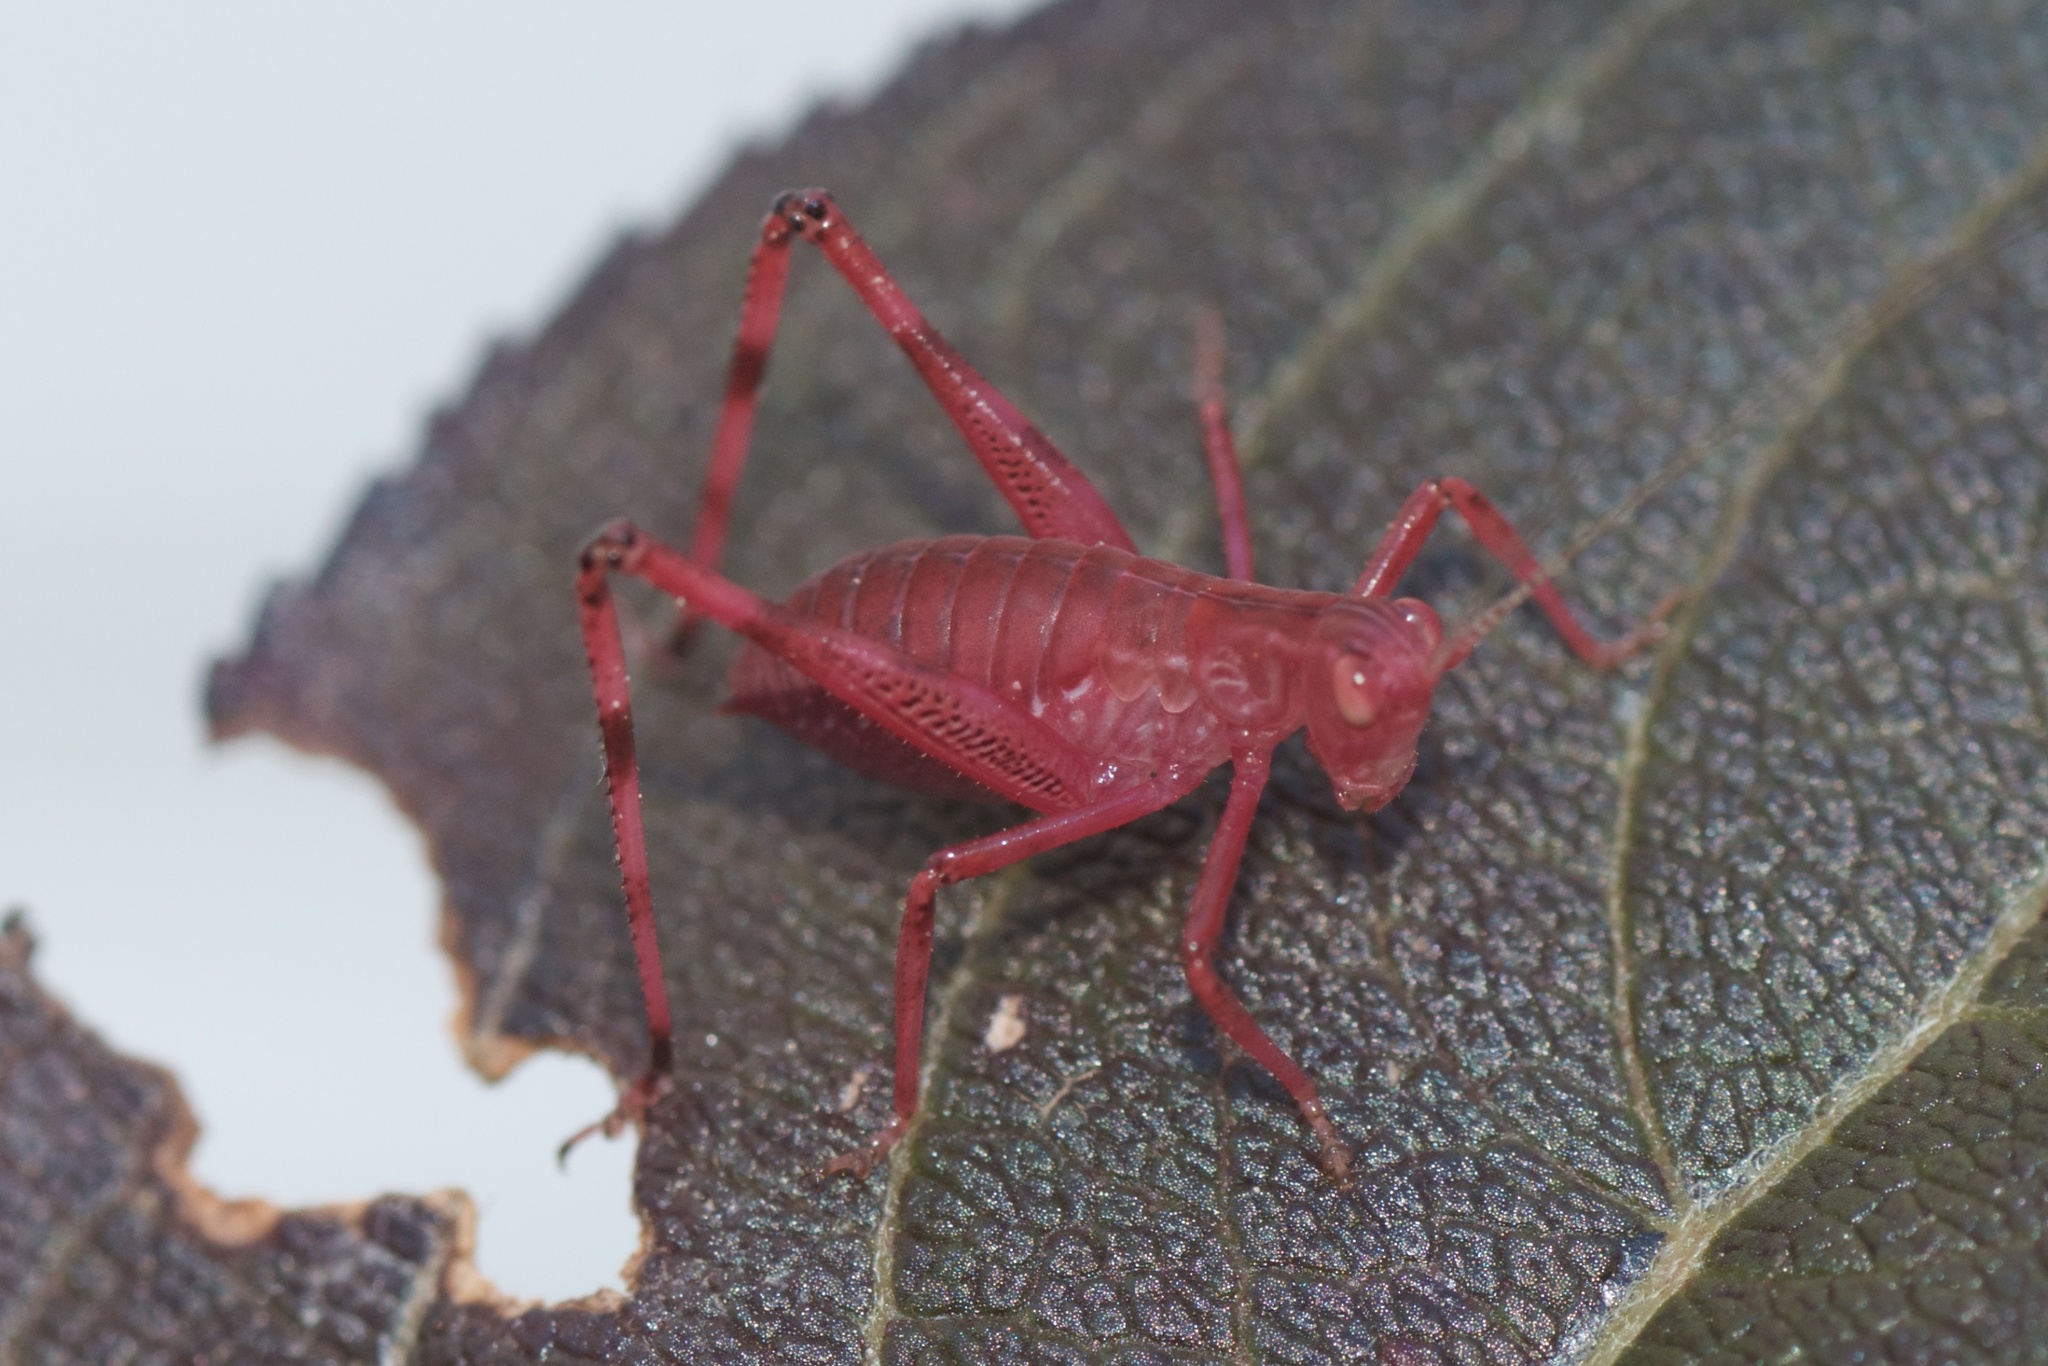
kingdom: Animalia
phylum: Arthropoda
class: Insecta
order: Orthoptera
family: Tettigoniidae
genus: Caedicia
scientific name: Caedicia simplex
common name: Common garden katydid
